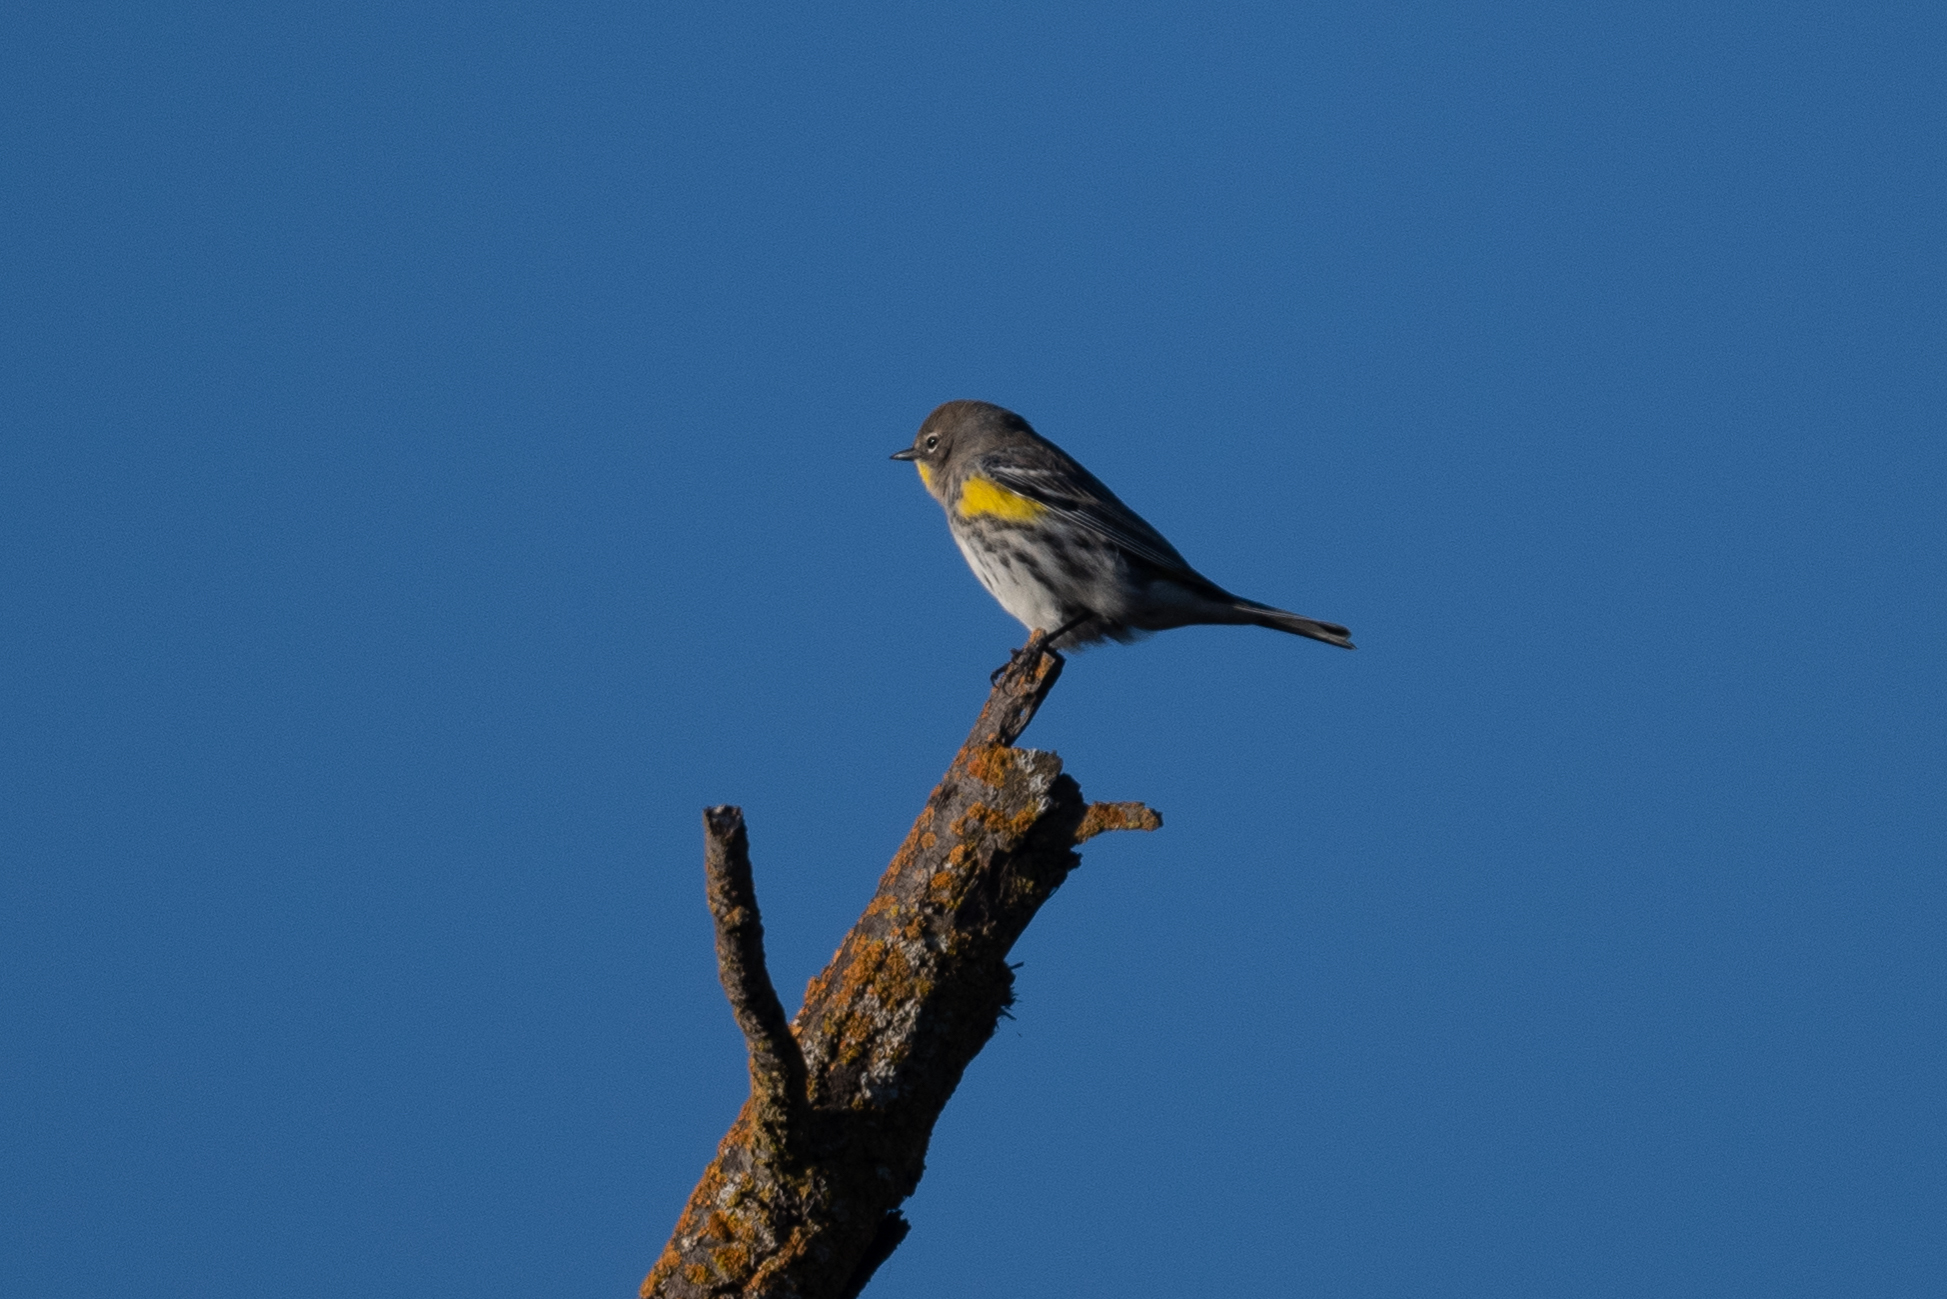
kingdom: Animalia
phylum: Chordata
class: Aves
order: Passeriformes
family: Parulidae
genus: Setophaga
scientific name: Setophaga coronata
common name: Myrtle warbler
